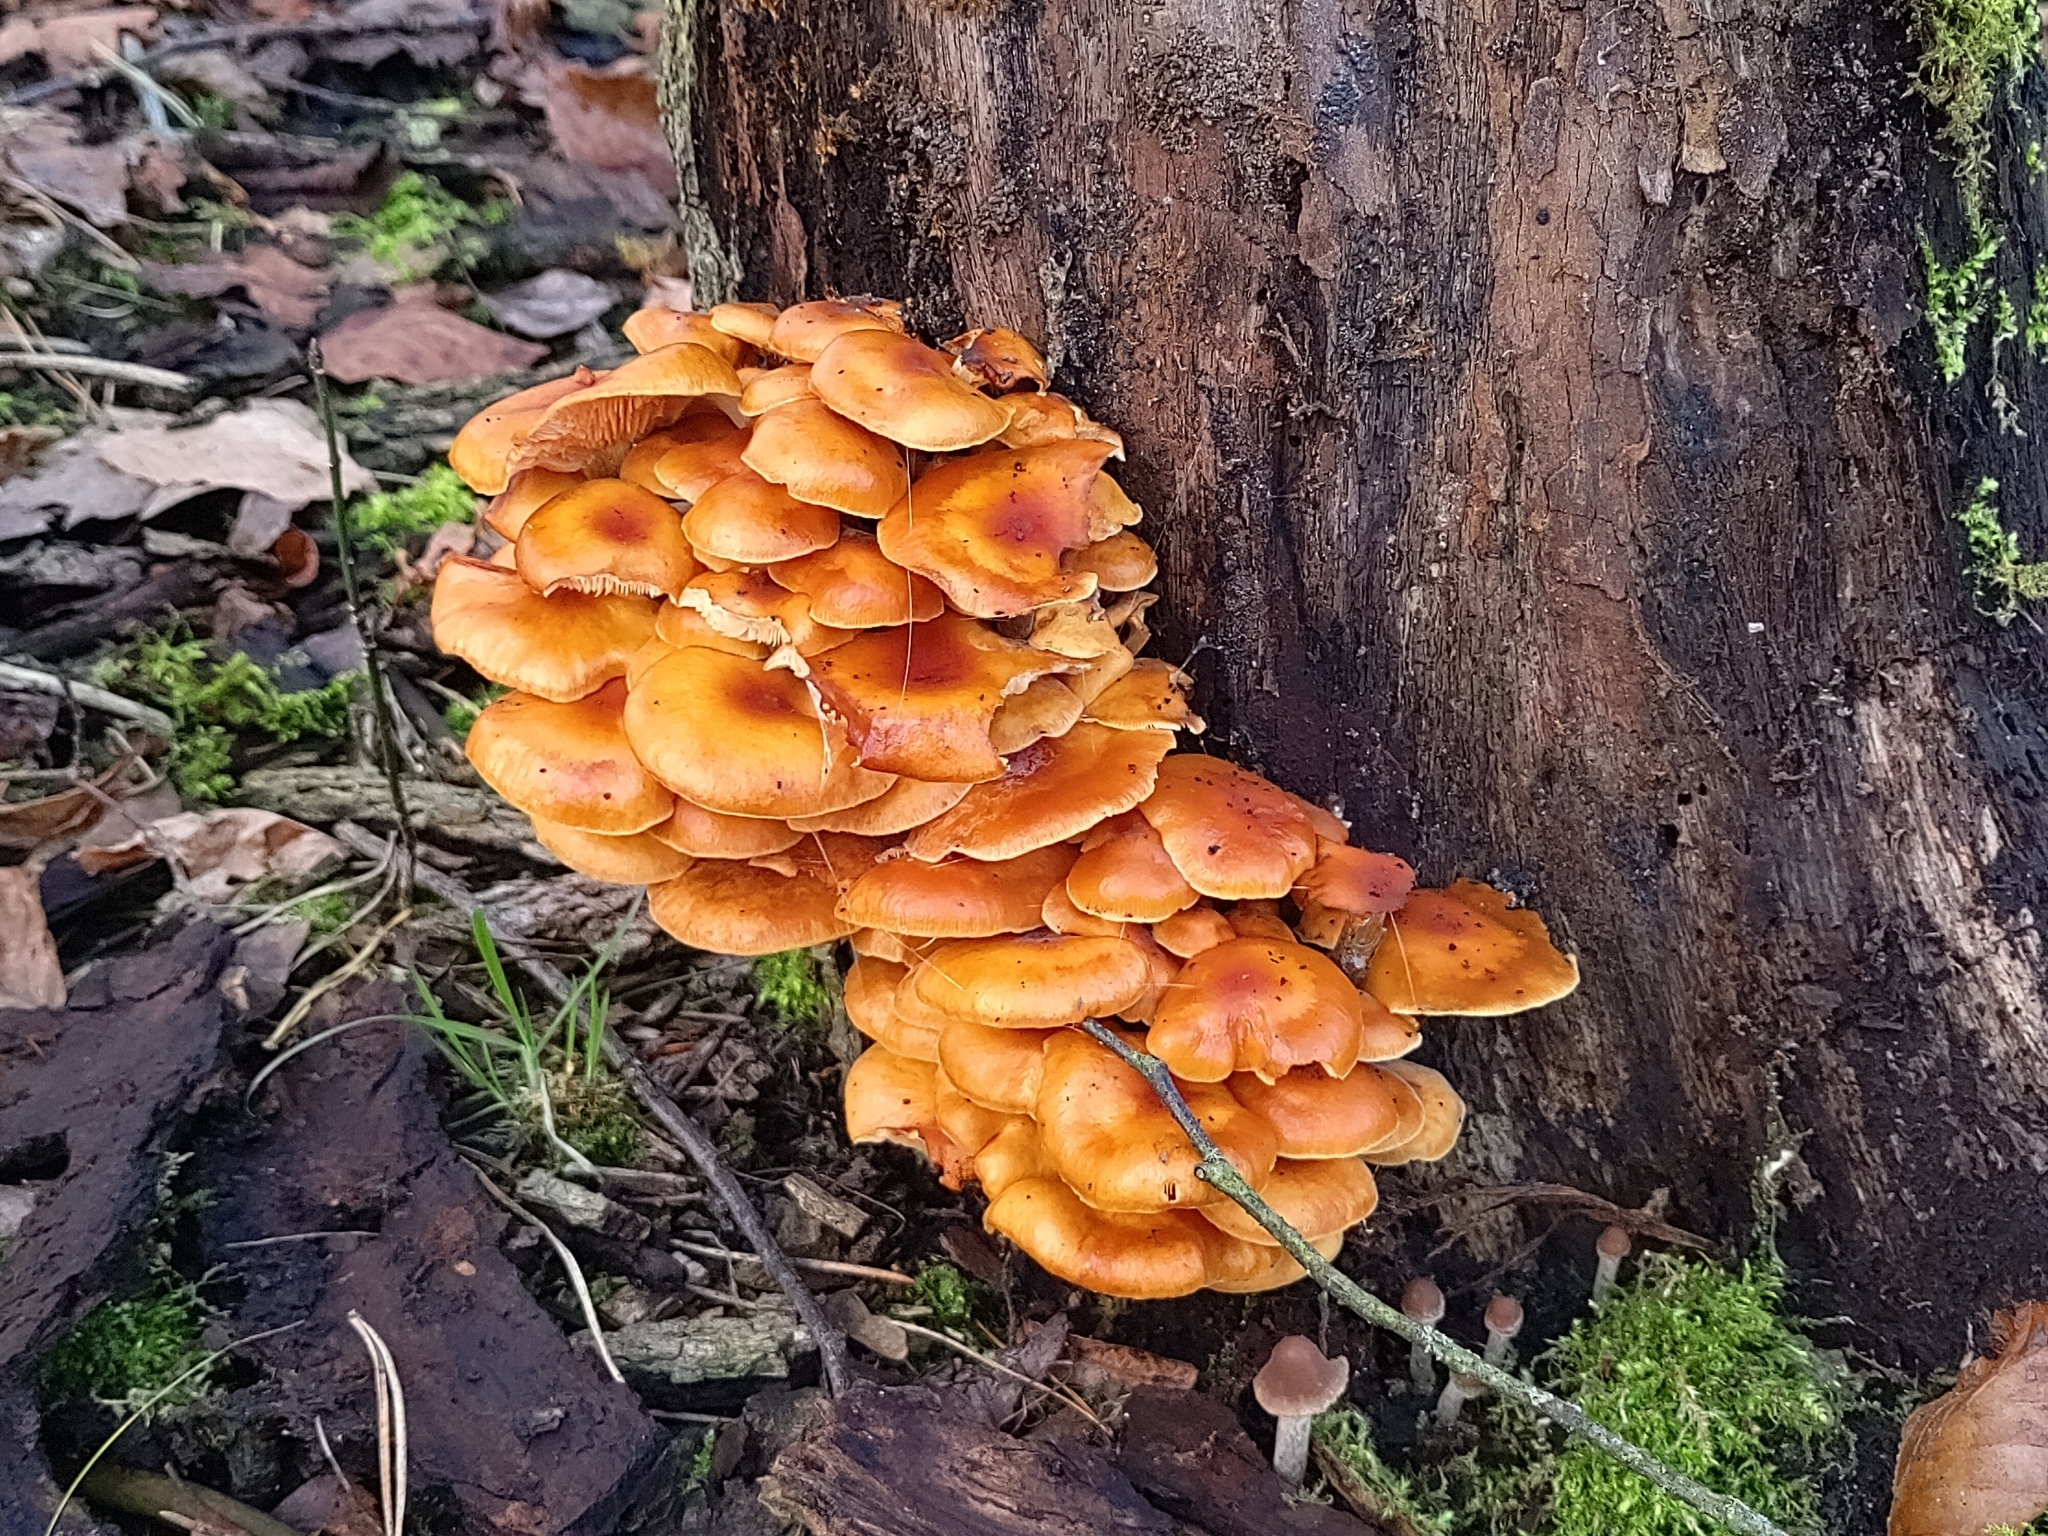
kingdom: Fungi
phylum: Basidiomycota
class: Agaricomycetes
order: Agaricales
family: Physalacriaceae
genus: Flammulina
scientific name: Flammulina
